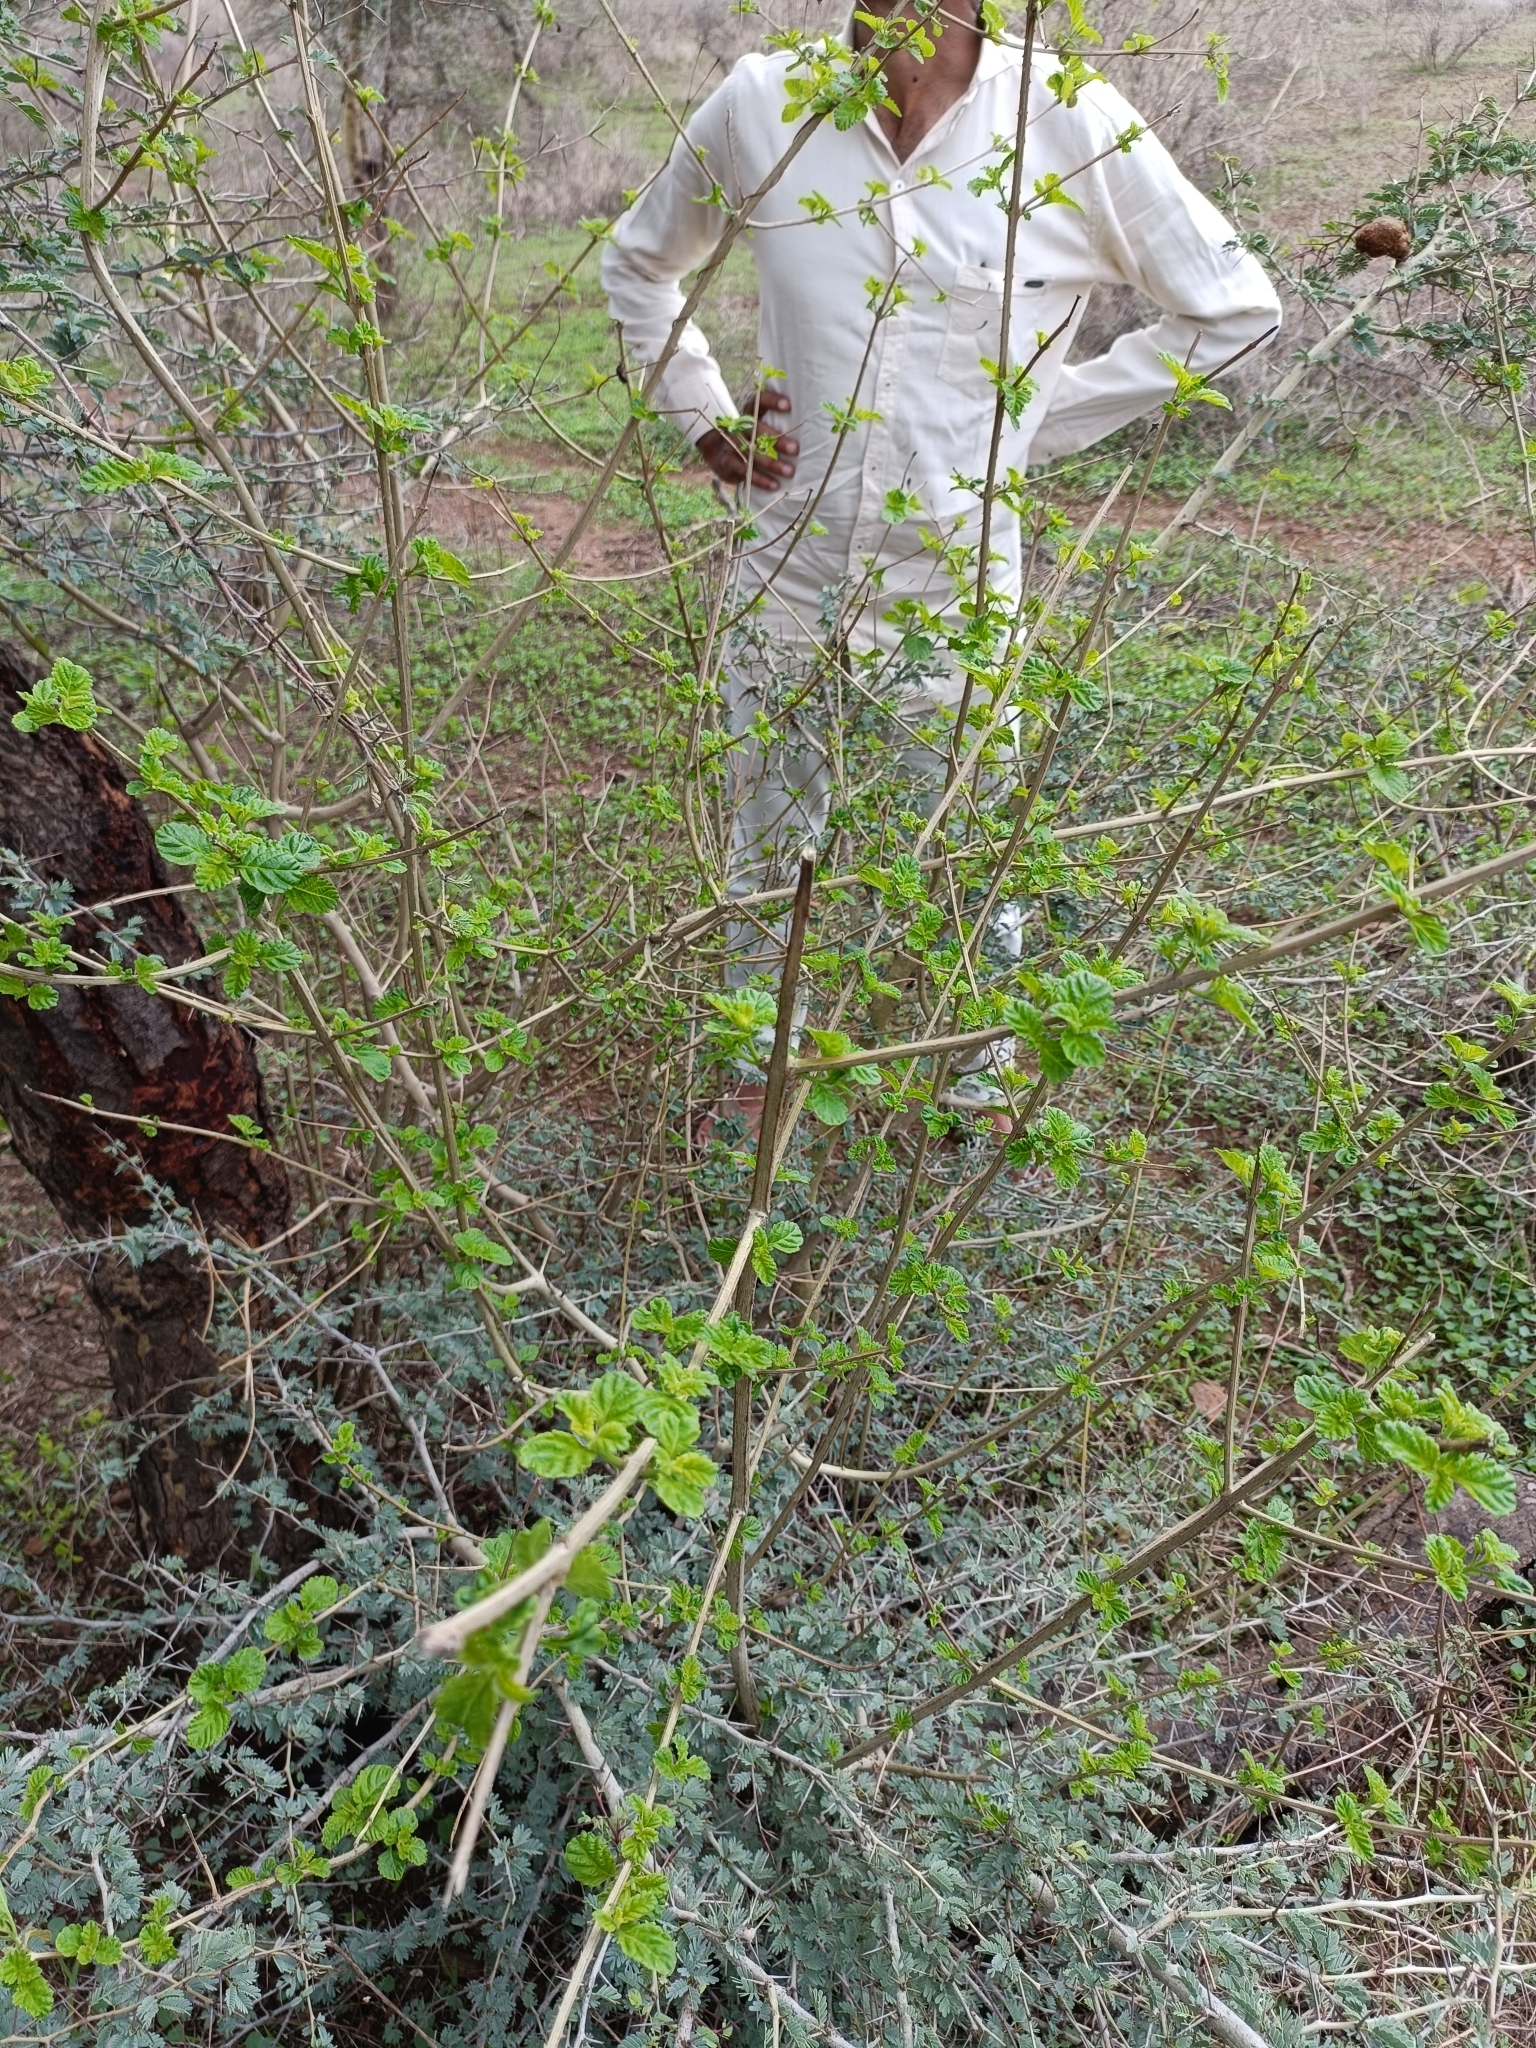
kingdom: Plantae
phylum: Tracheophyta
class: Magnoliopsida
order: Lamiales
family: Verbenaceae
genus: Lantana
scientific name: Lantana camara
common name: Lantana
